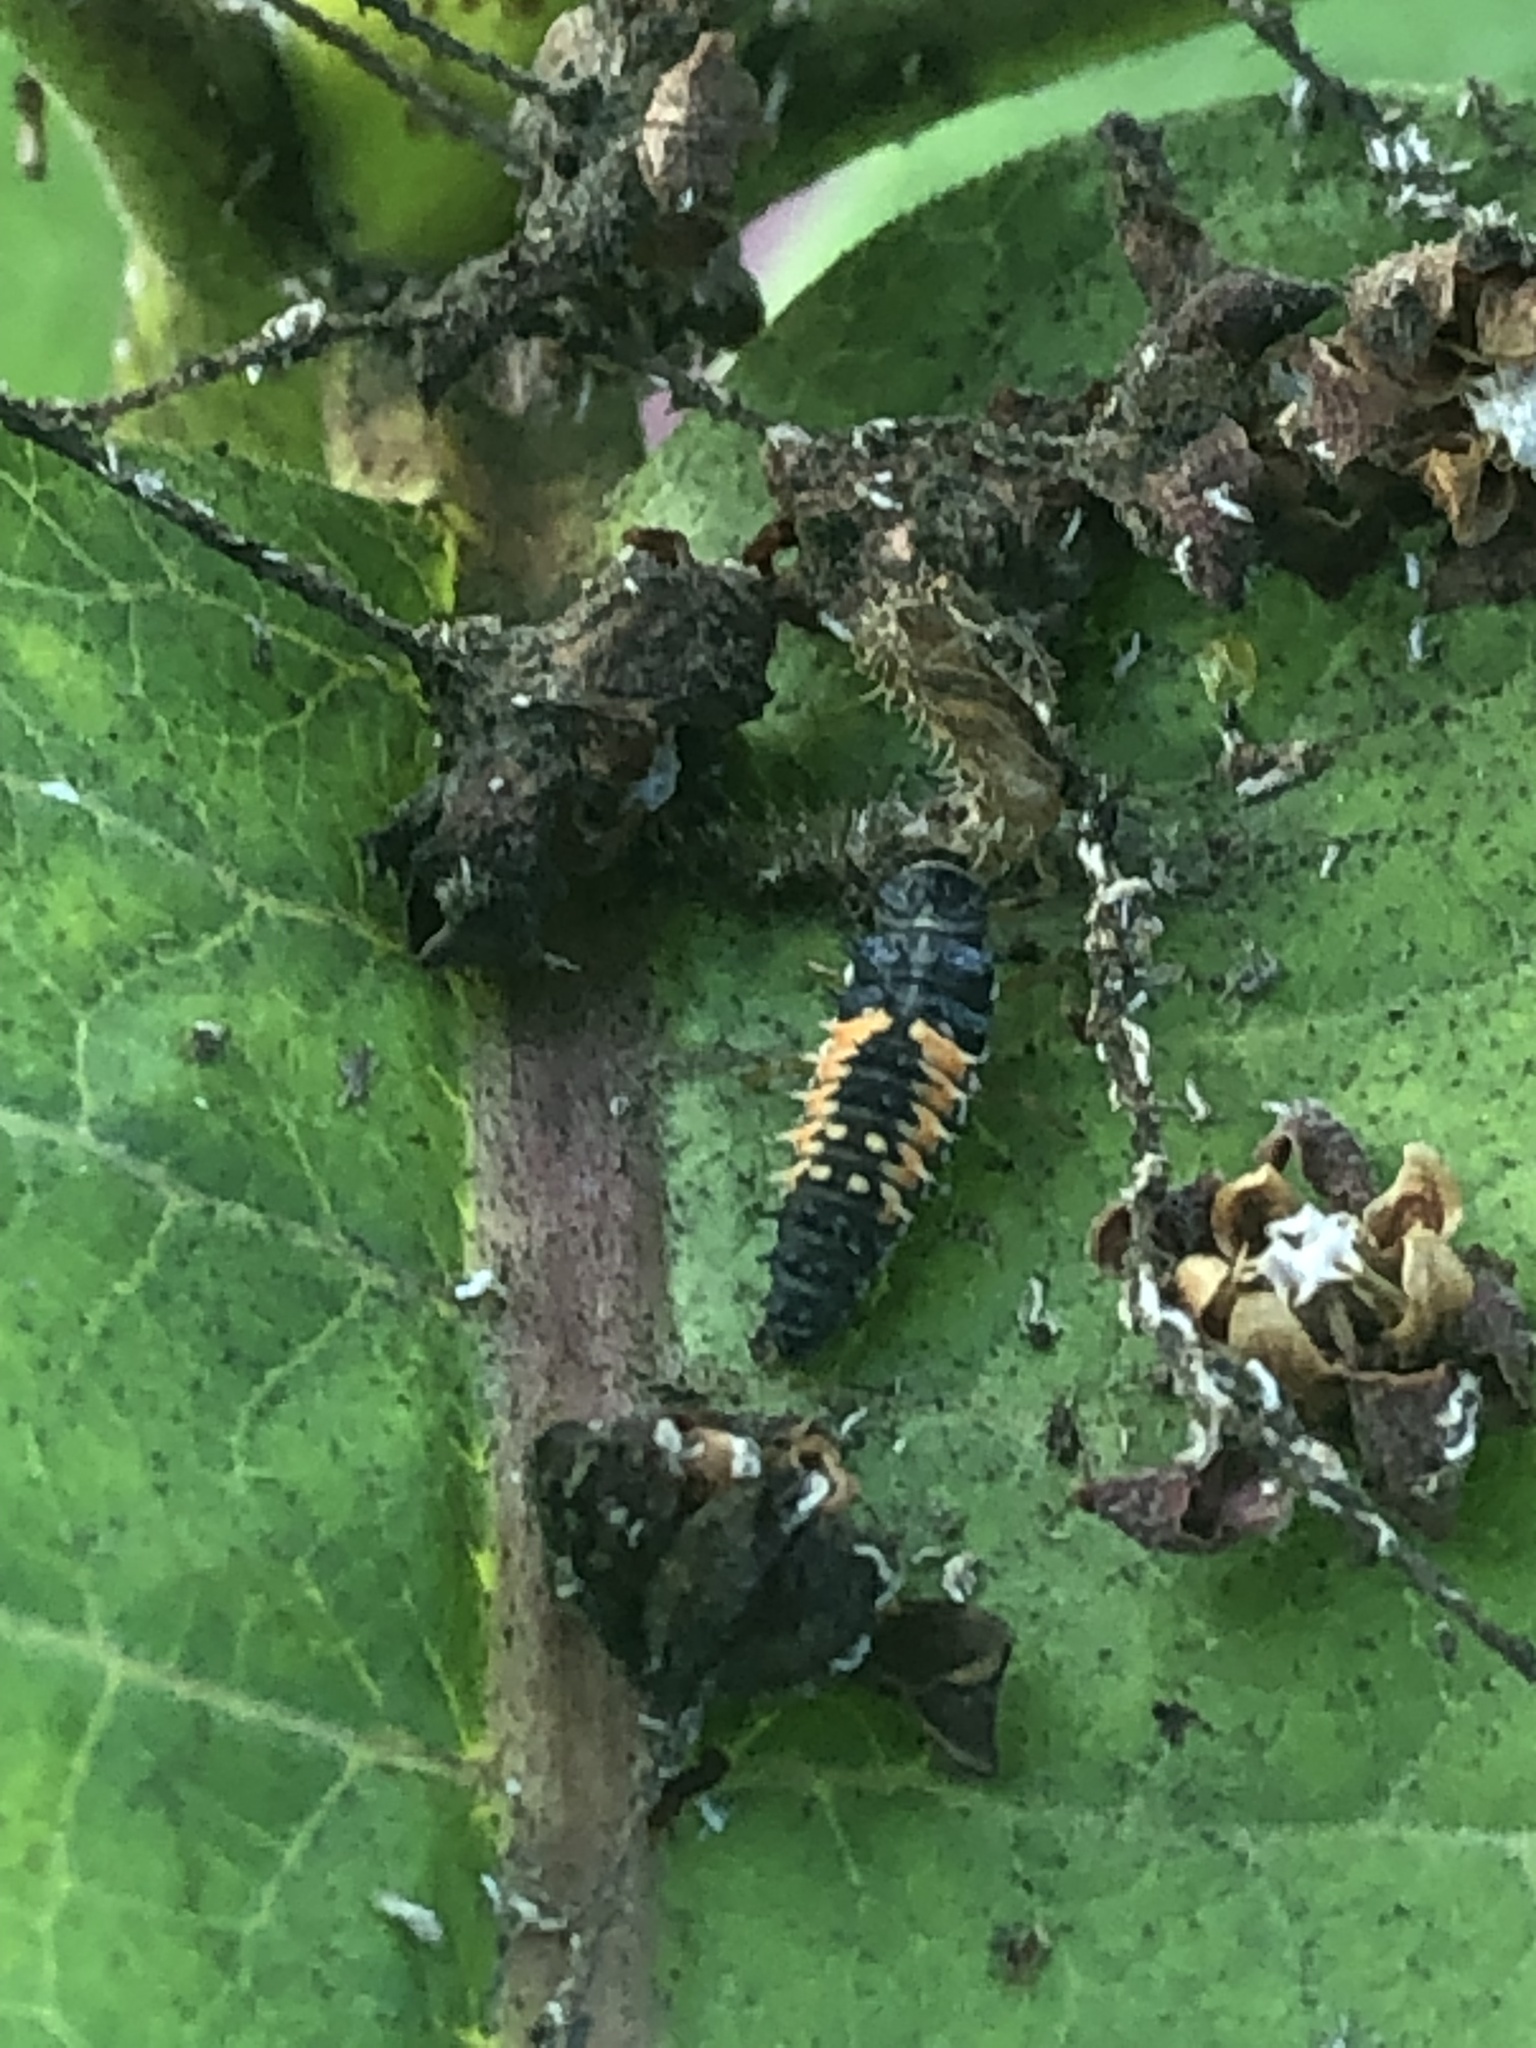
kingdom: Animalia
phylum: Arthropoda
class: Insecta
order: Coleoptera
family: Coccinellidae
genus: Harmonia
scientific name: Harmonia axyridis
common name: Harlequin ladybird
